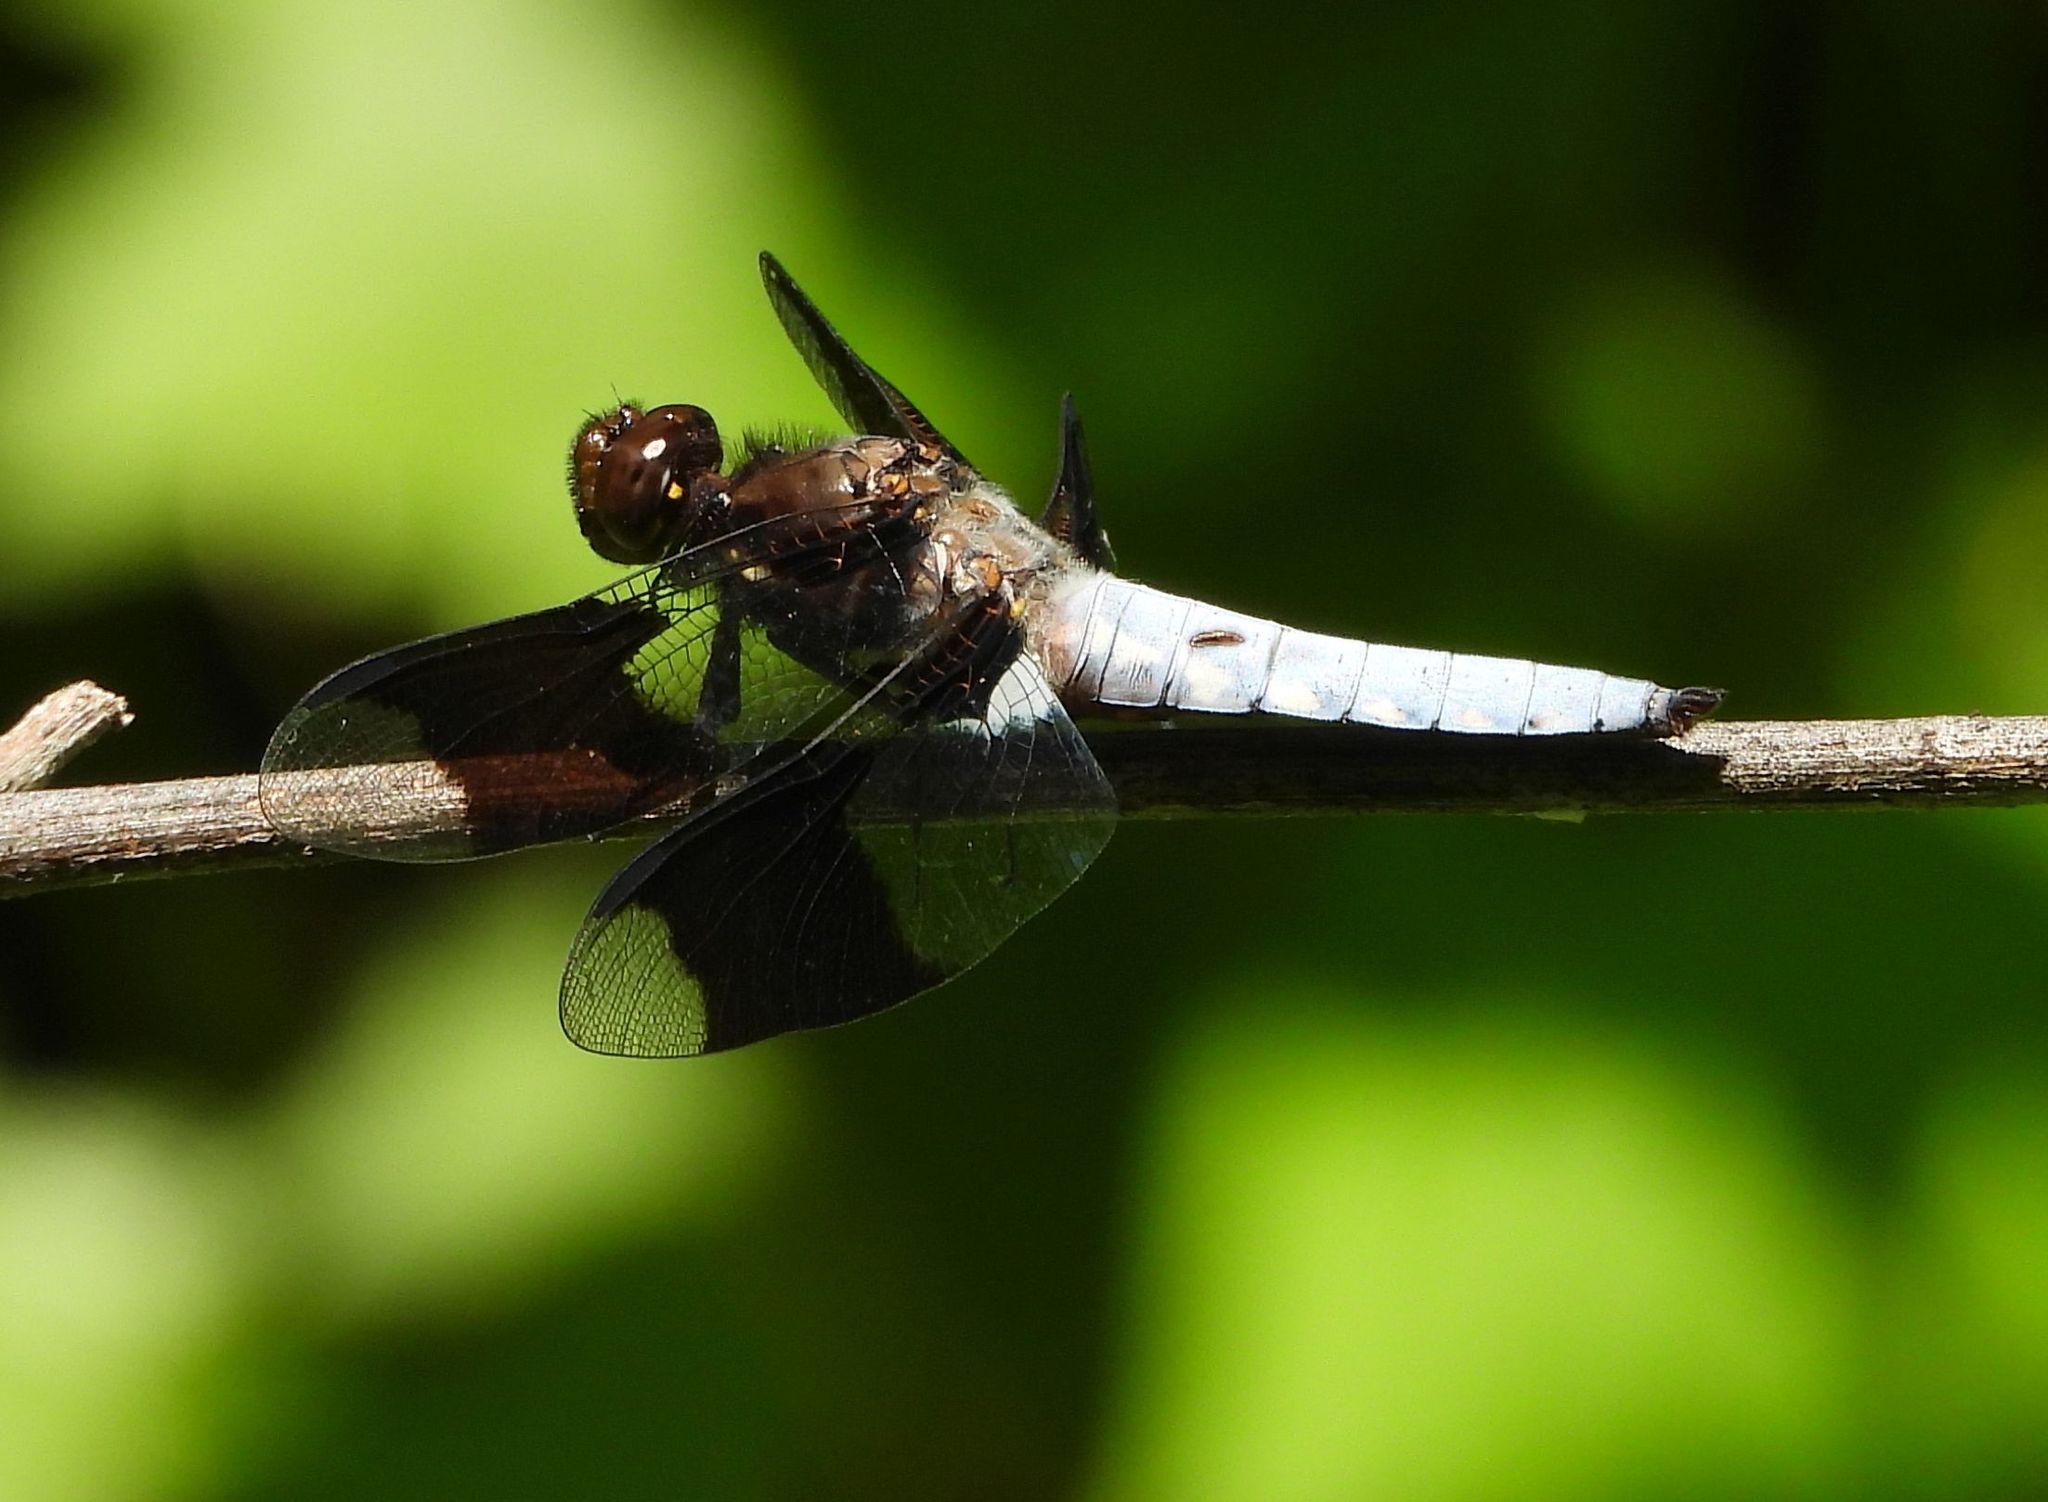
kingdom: Animalia
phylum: Arthropoda
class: Insecta
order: Odonata
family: Libellulidae
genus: Plathemis
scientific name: Plathemis lydia
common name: Common whitetail
